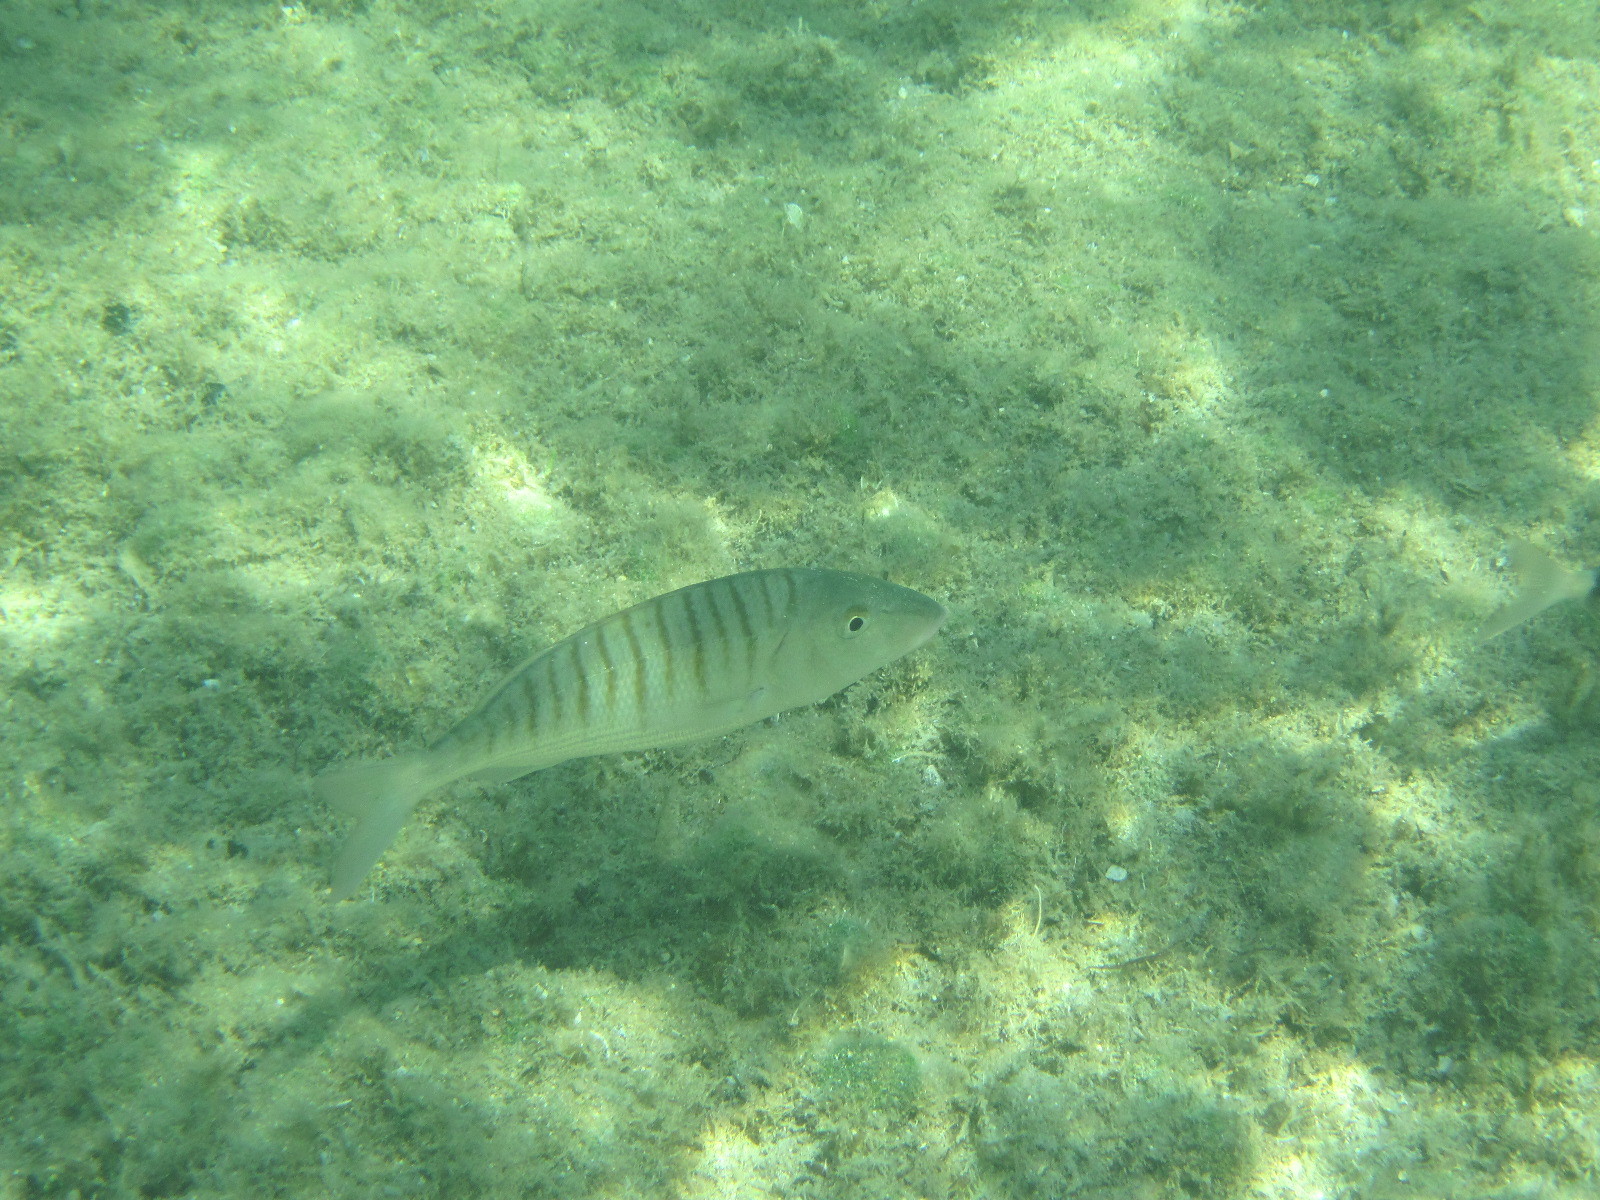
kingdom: Animalia
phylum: Chordata
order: Perciformes
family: Sparidae
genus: Lithognathus
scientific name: Lithognathus mormyrus
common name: Sand steenbras
